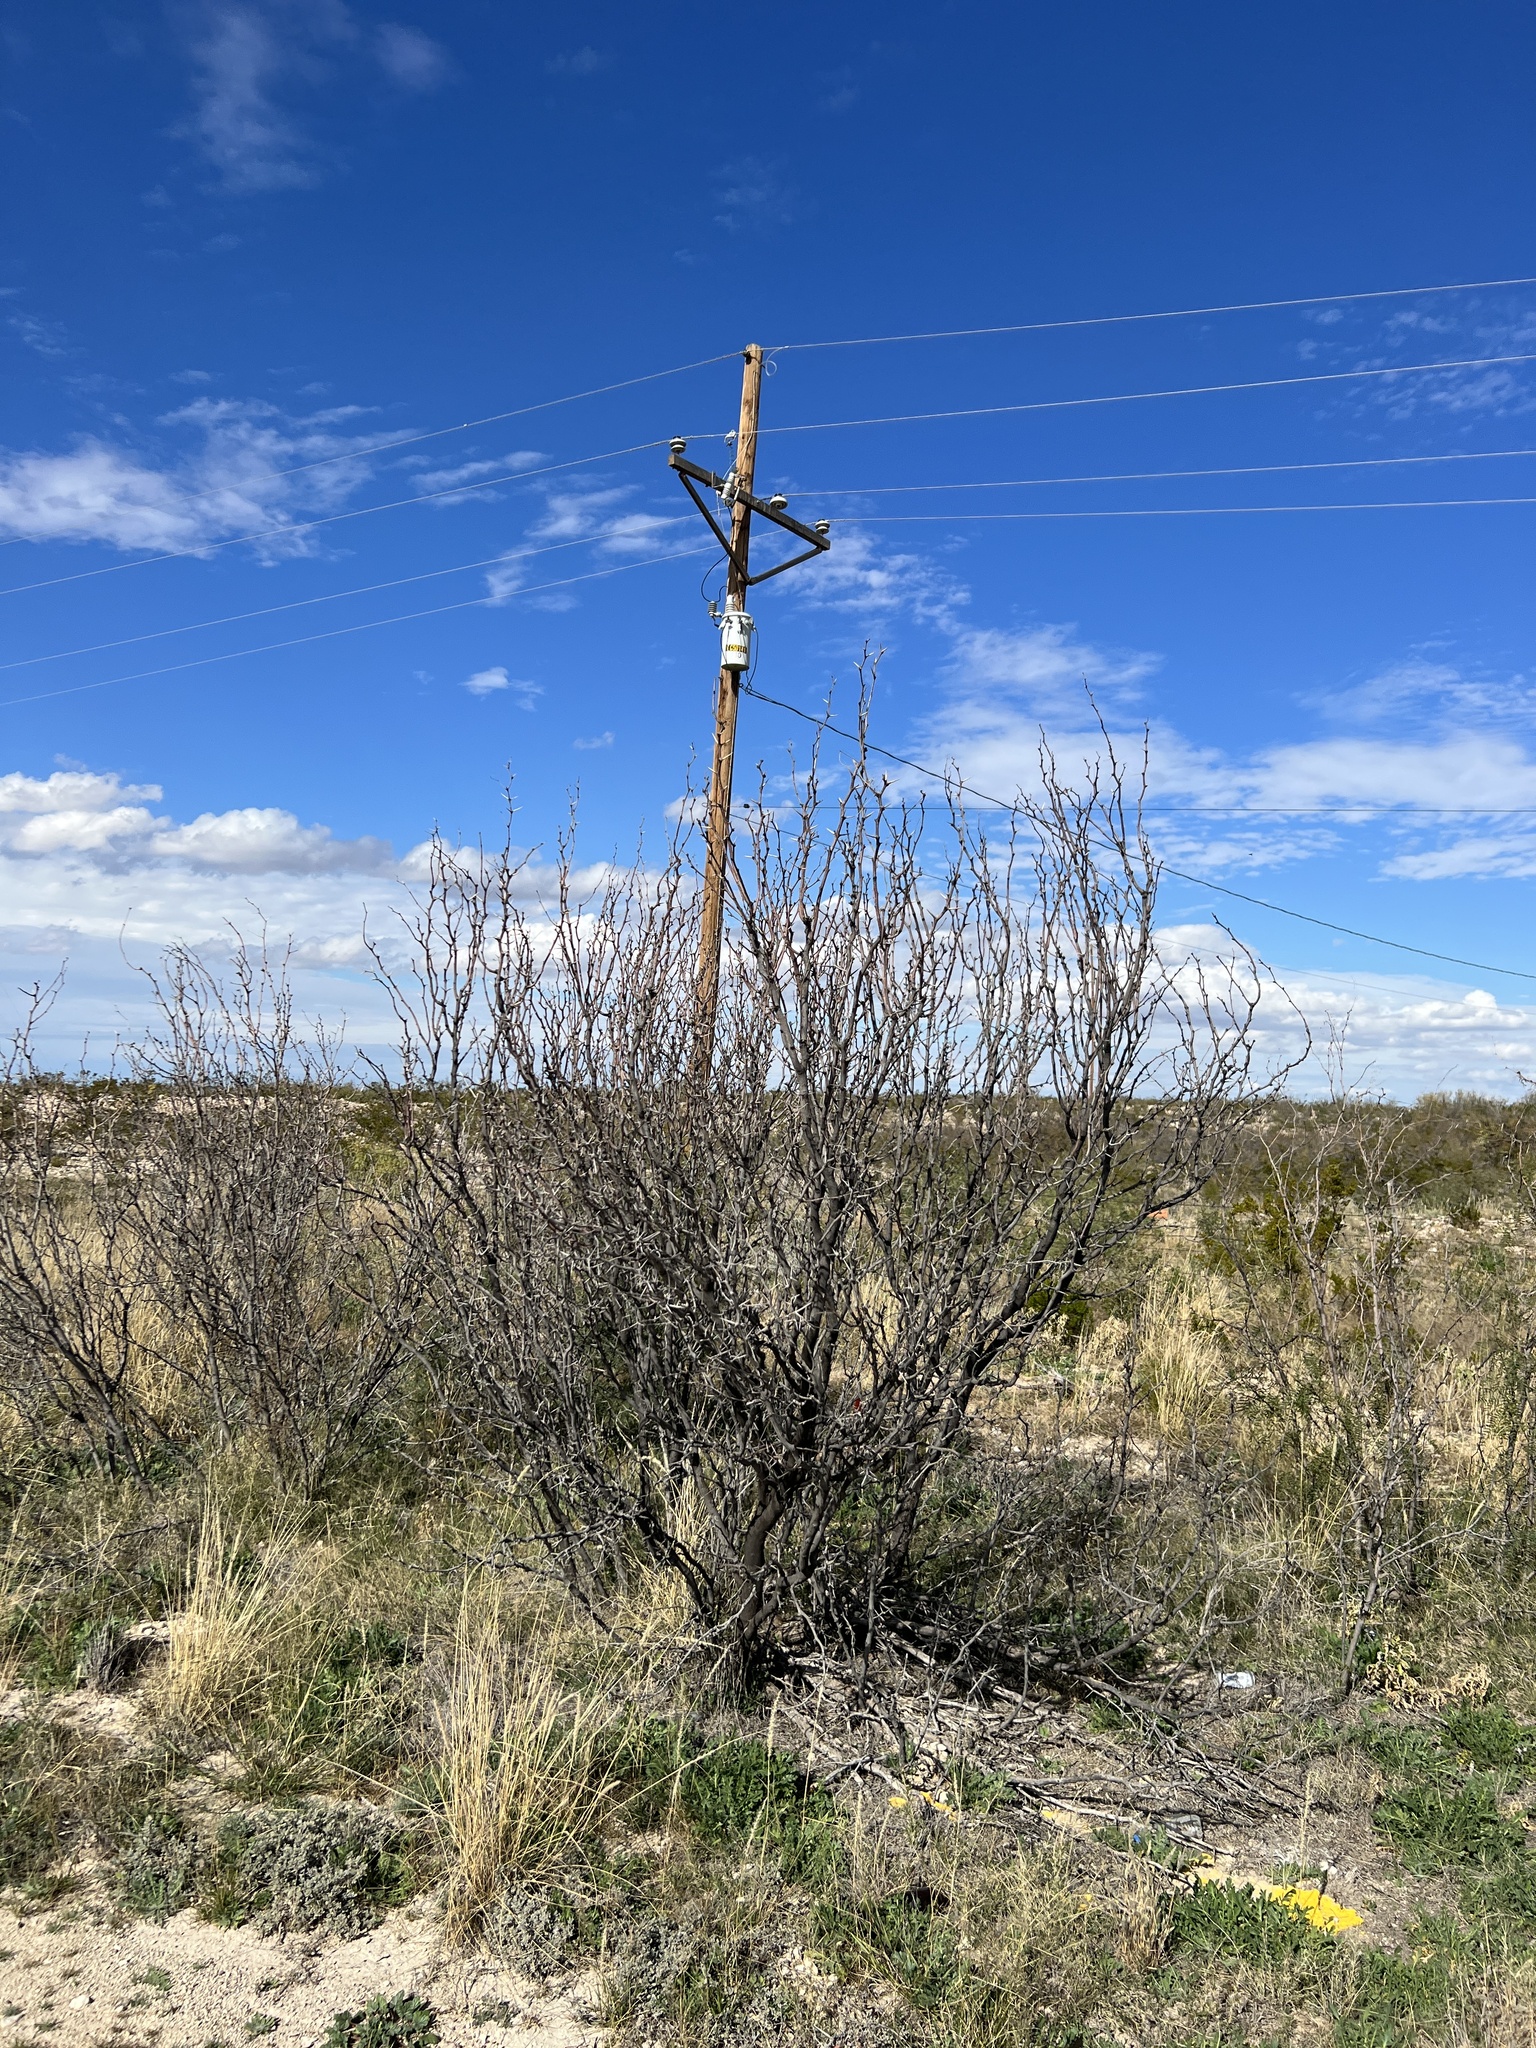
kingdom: Plantae
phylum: Tracheophyta
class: Magnoliopsida
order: Fabales
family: Fabaceae
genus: Prosopis
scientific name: Prosopis glandulosa
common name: Honey mesquite
